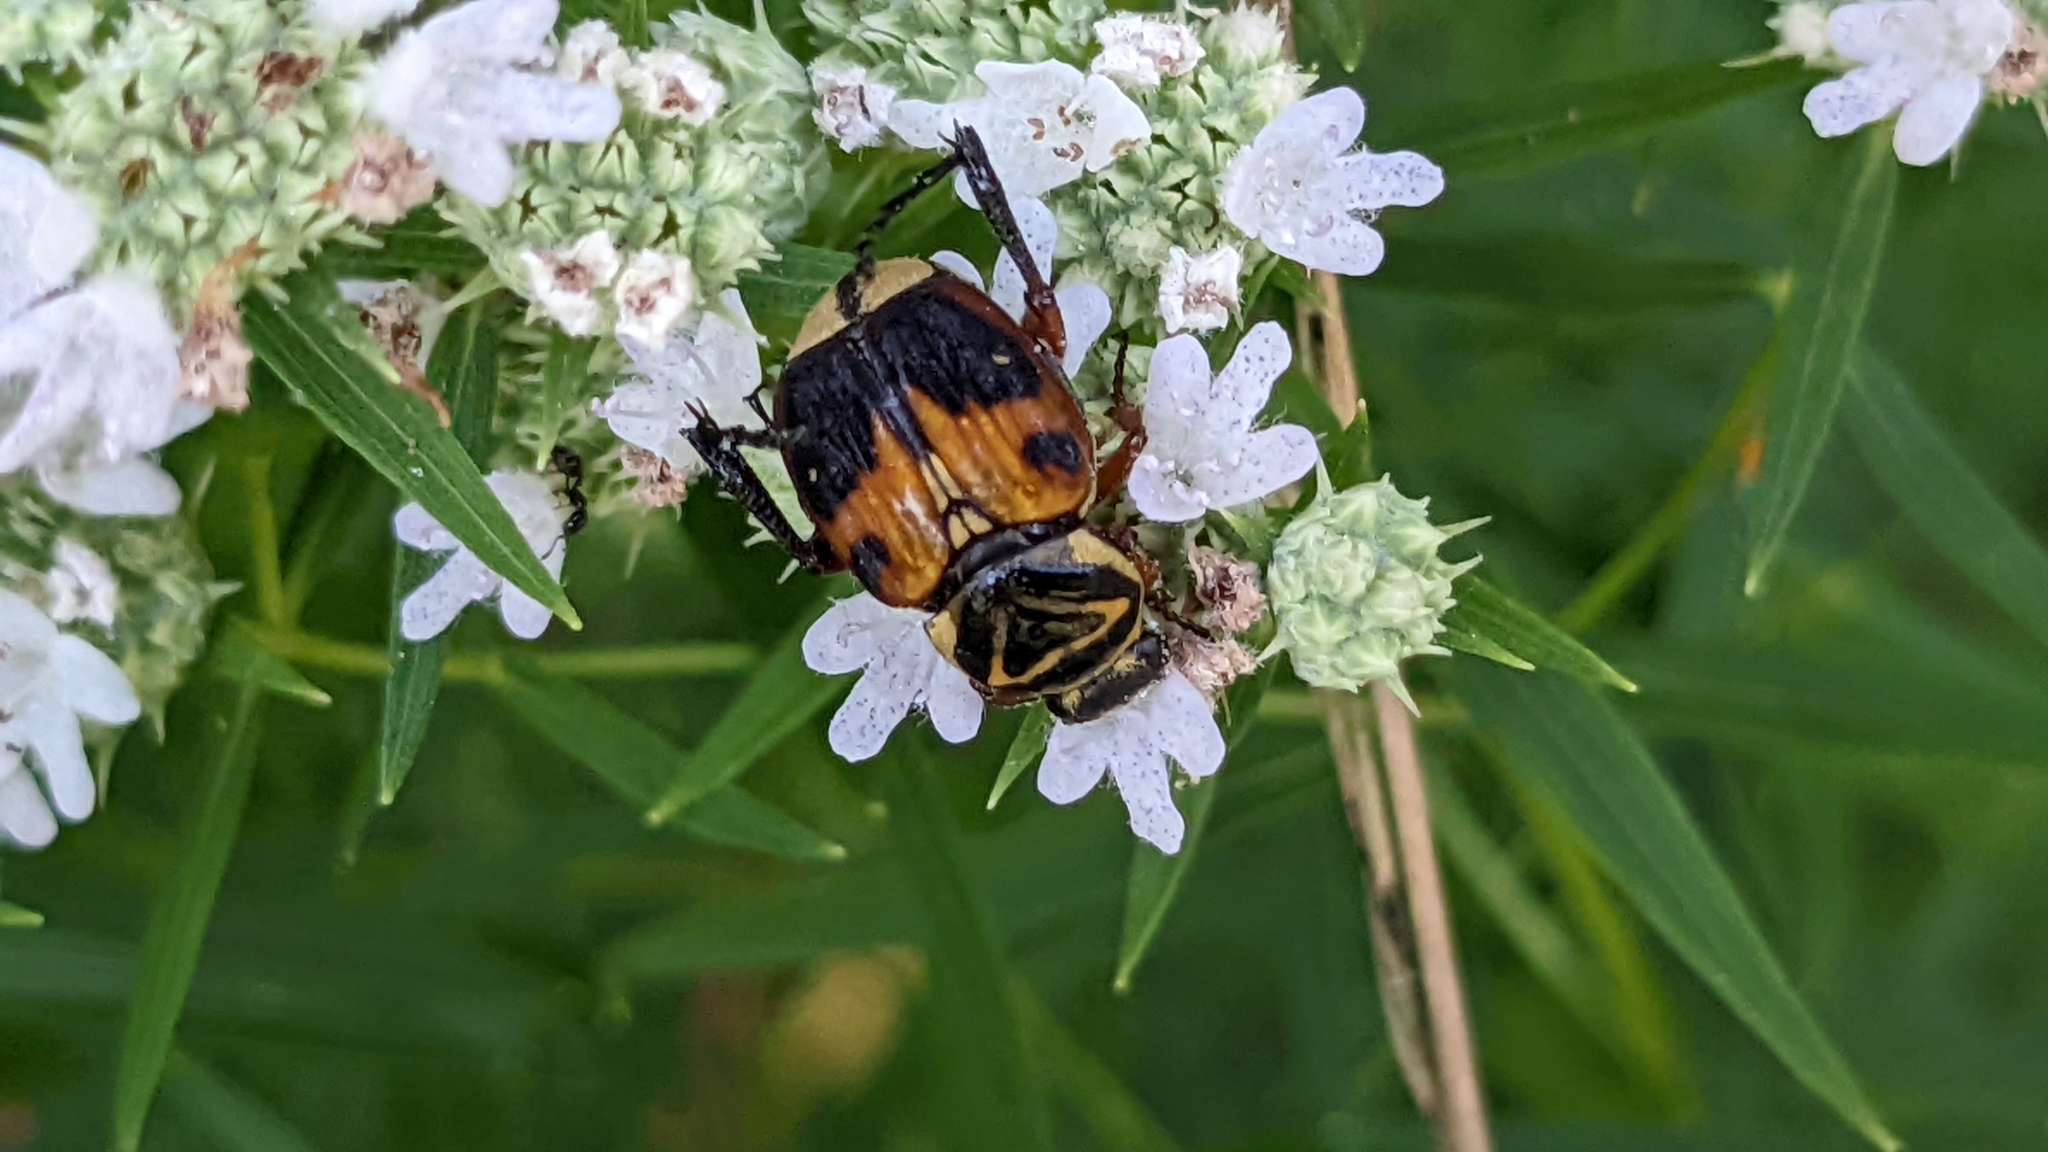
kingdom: Animalia
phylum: Arthropoda
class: Insecta
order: Coleoptera
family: Scarabaeidae
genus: Trigonopeltastes
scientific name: Trigonopeltastes delta
